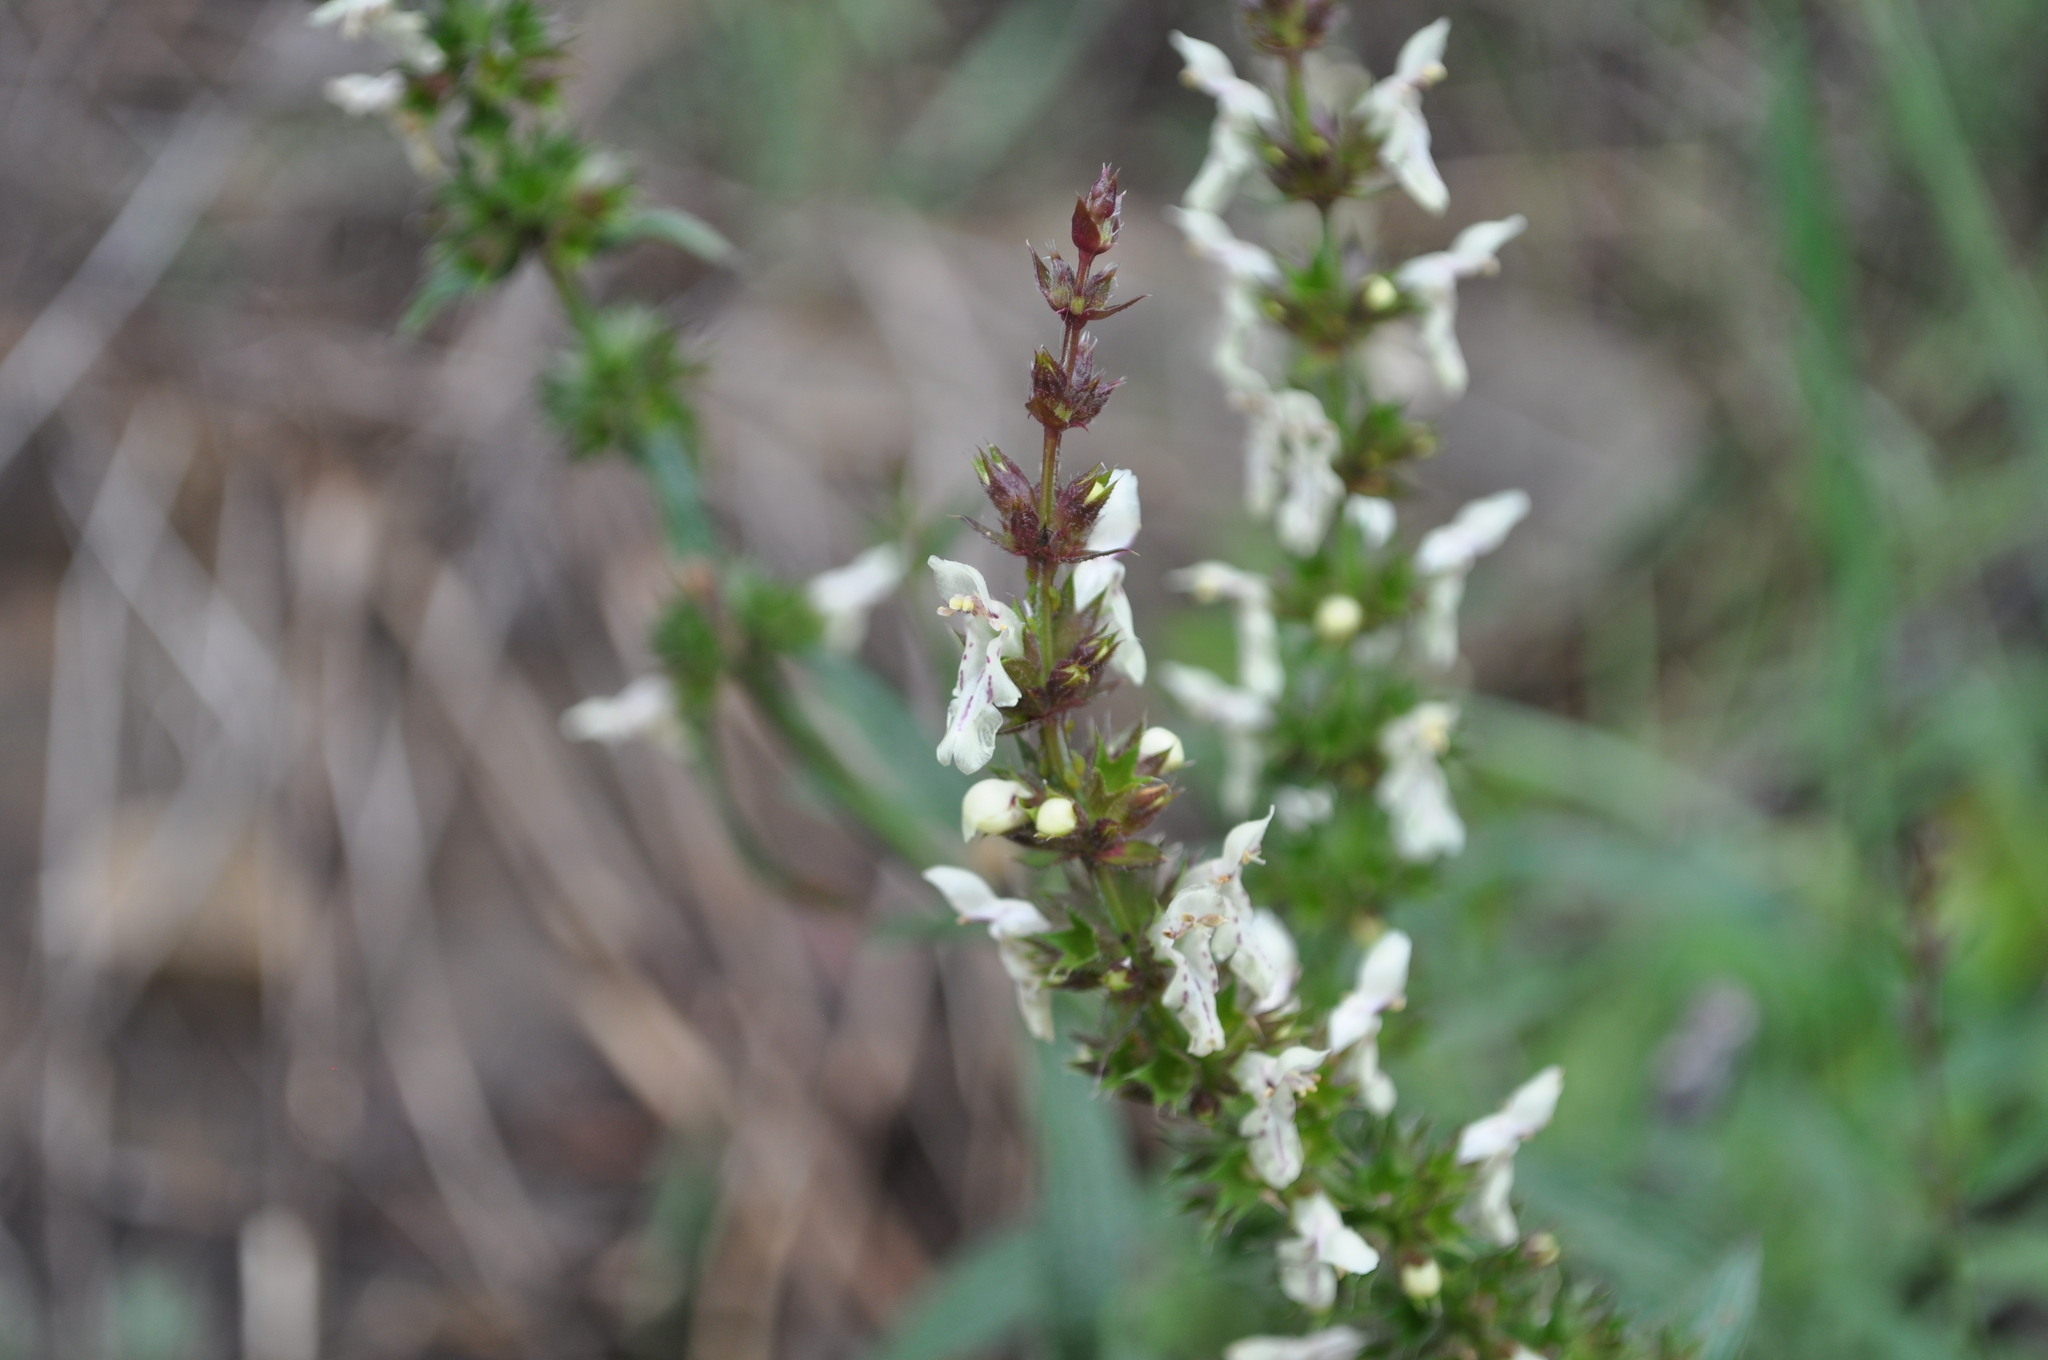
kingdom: Plantae
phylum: Tracheophyta
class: Magnoliopsida
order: Lamiales
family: Lamiaceae
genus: Stachys
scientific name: Stachys recta
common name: Perennial yellow-woundwort
